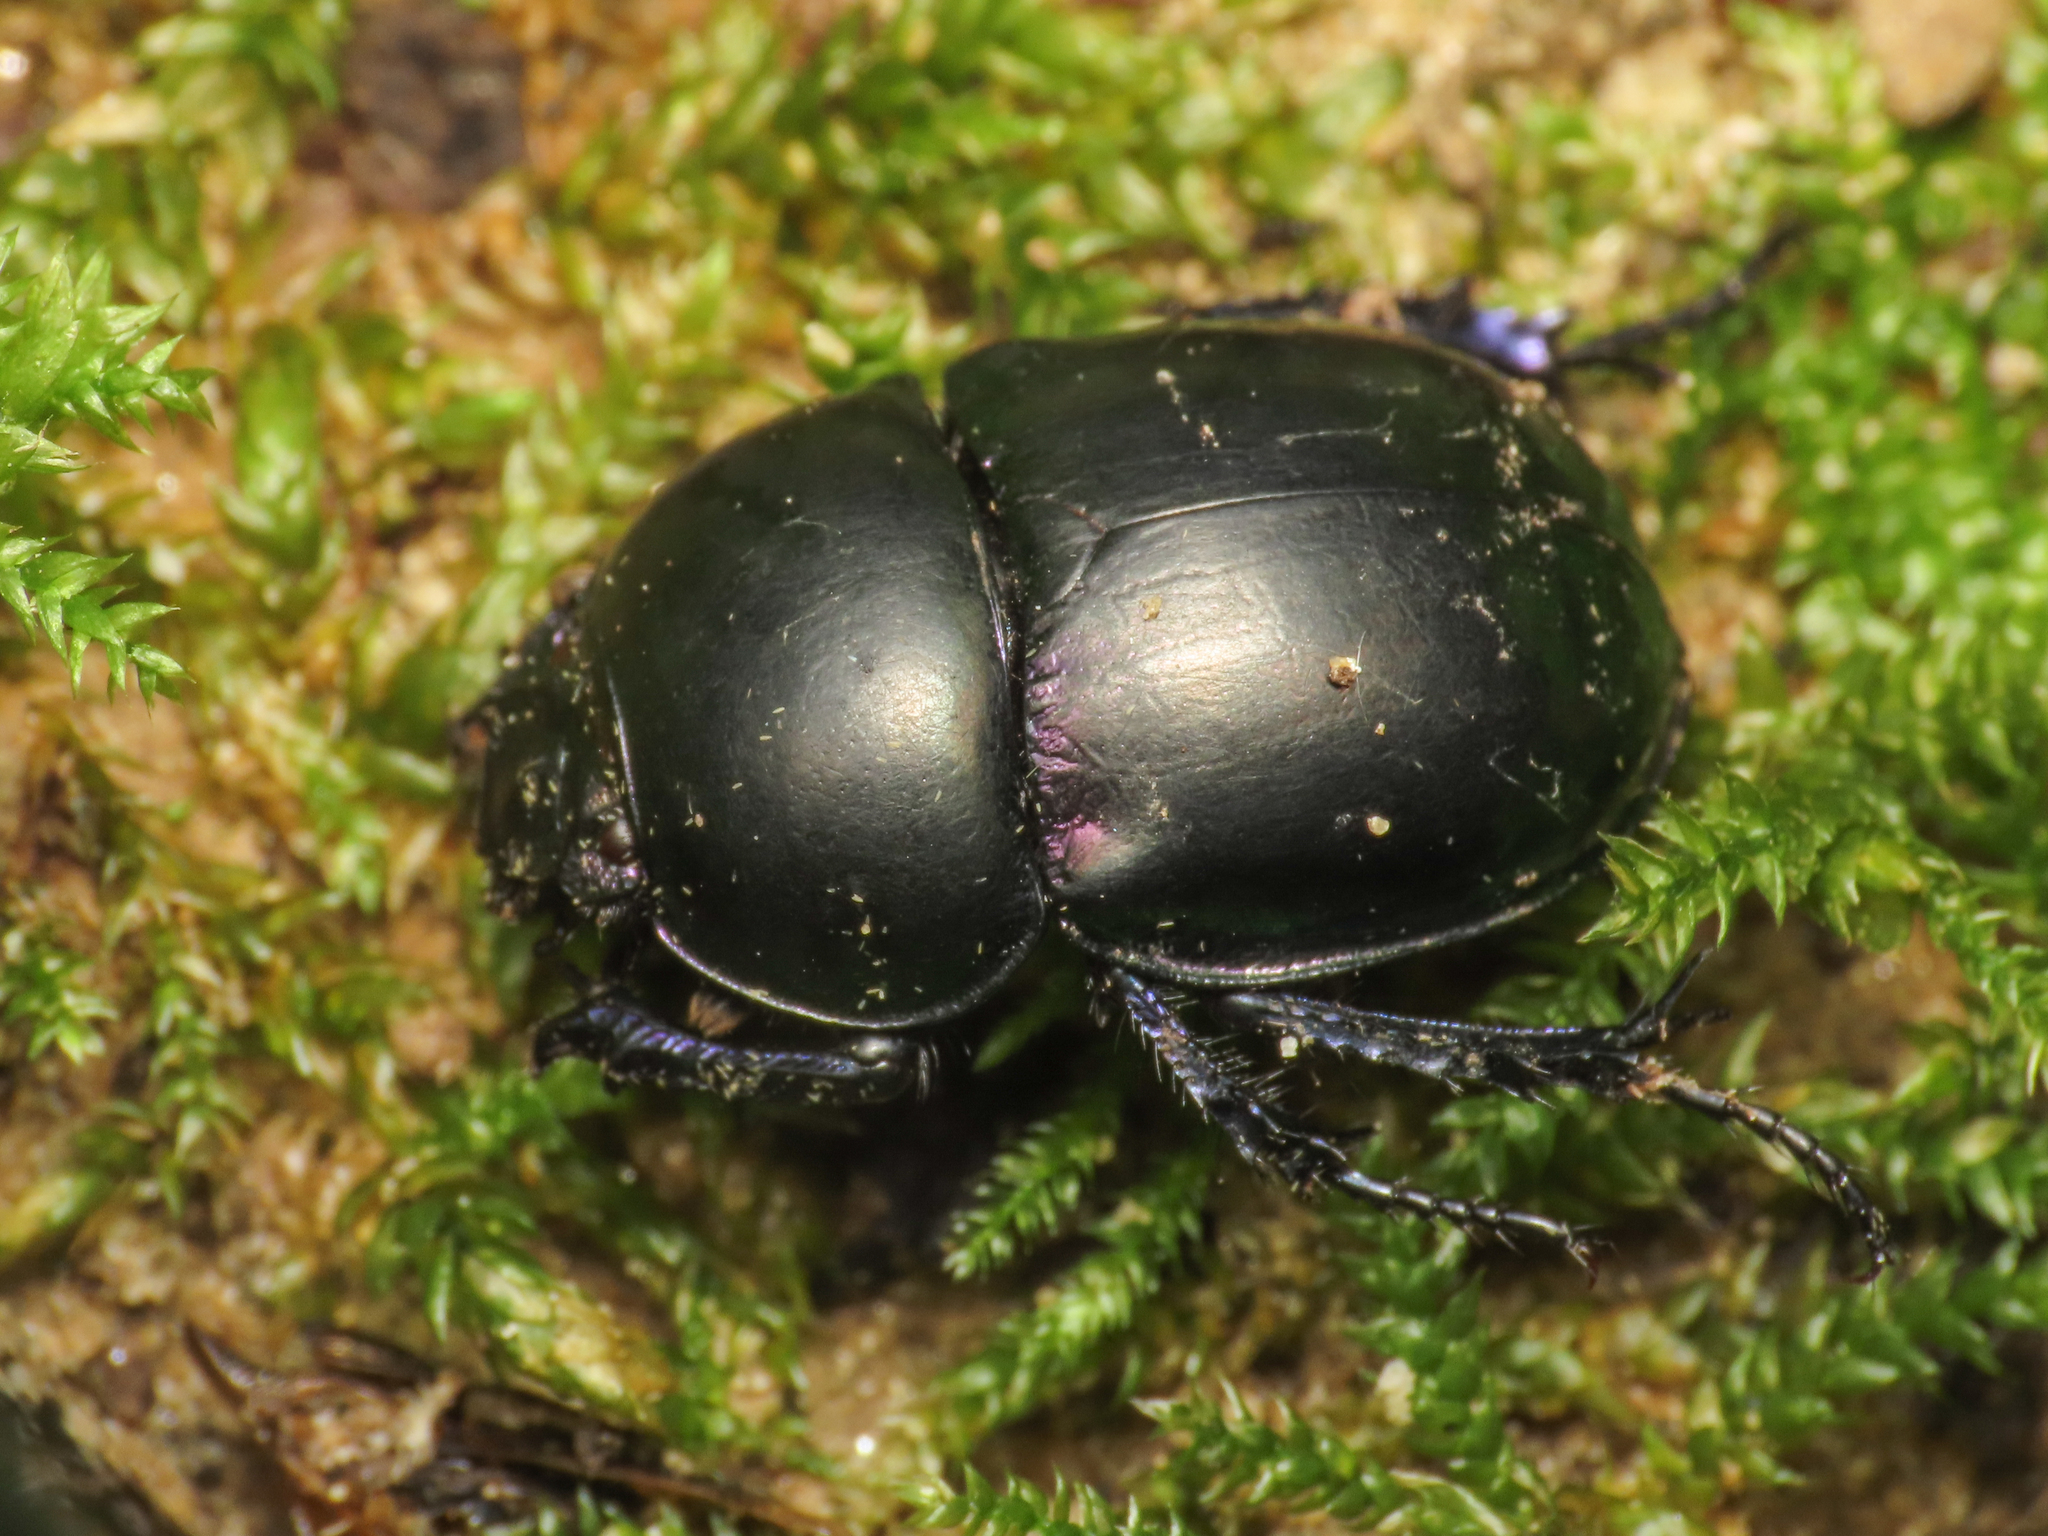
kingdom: Animalia
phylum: Arthropoda
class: Insecta
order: Coleoptera
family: Geotrupidae
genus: Trypocopris
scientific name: Trypocopris pyrenaeus
